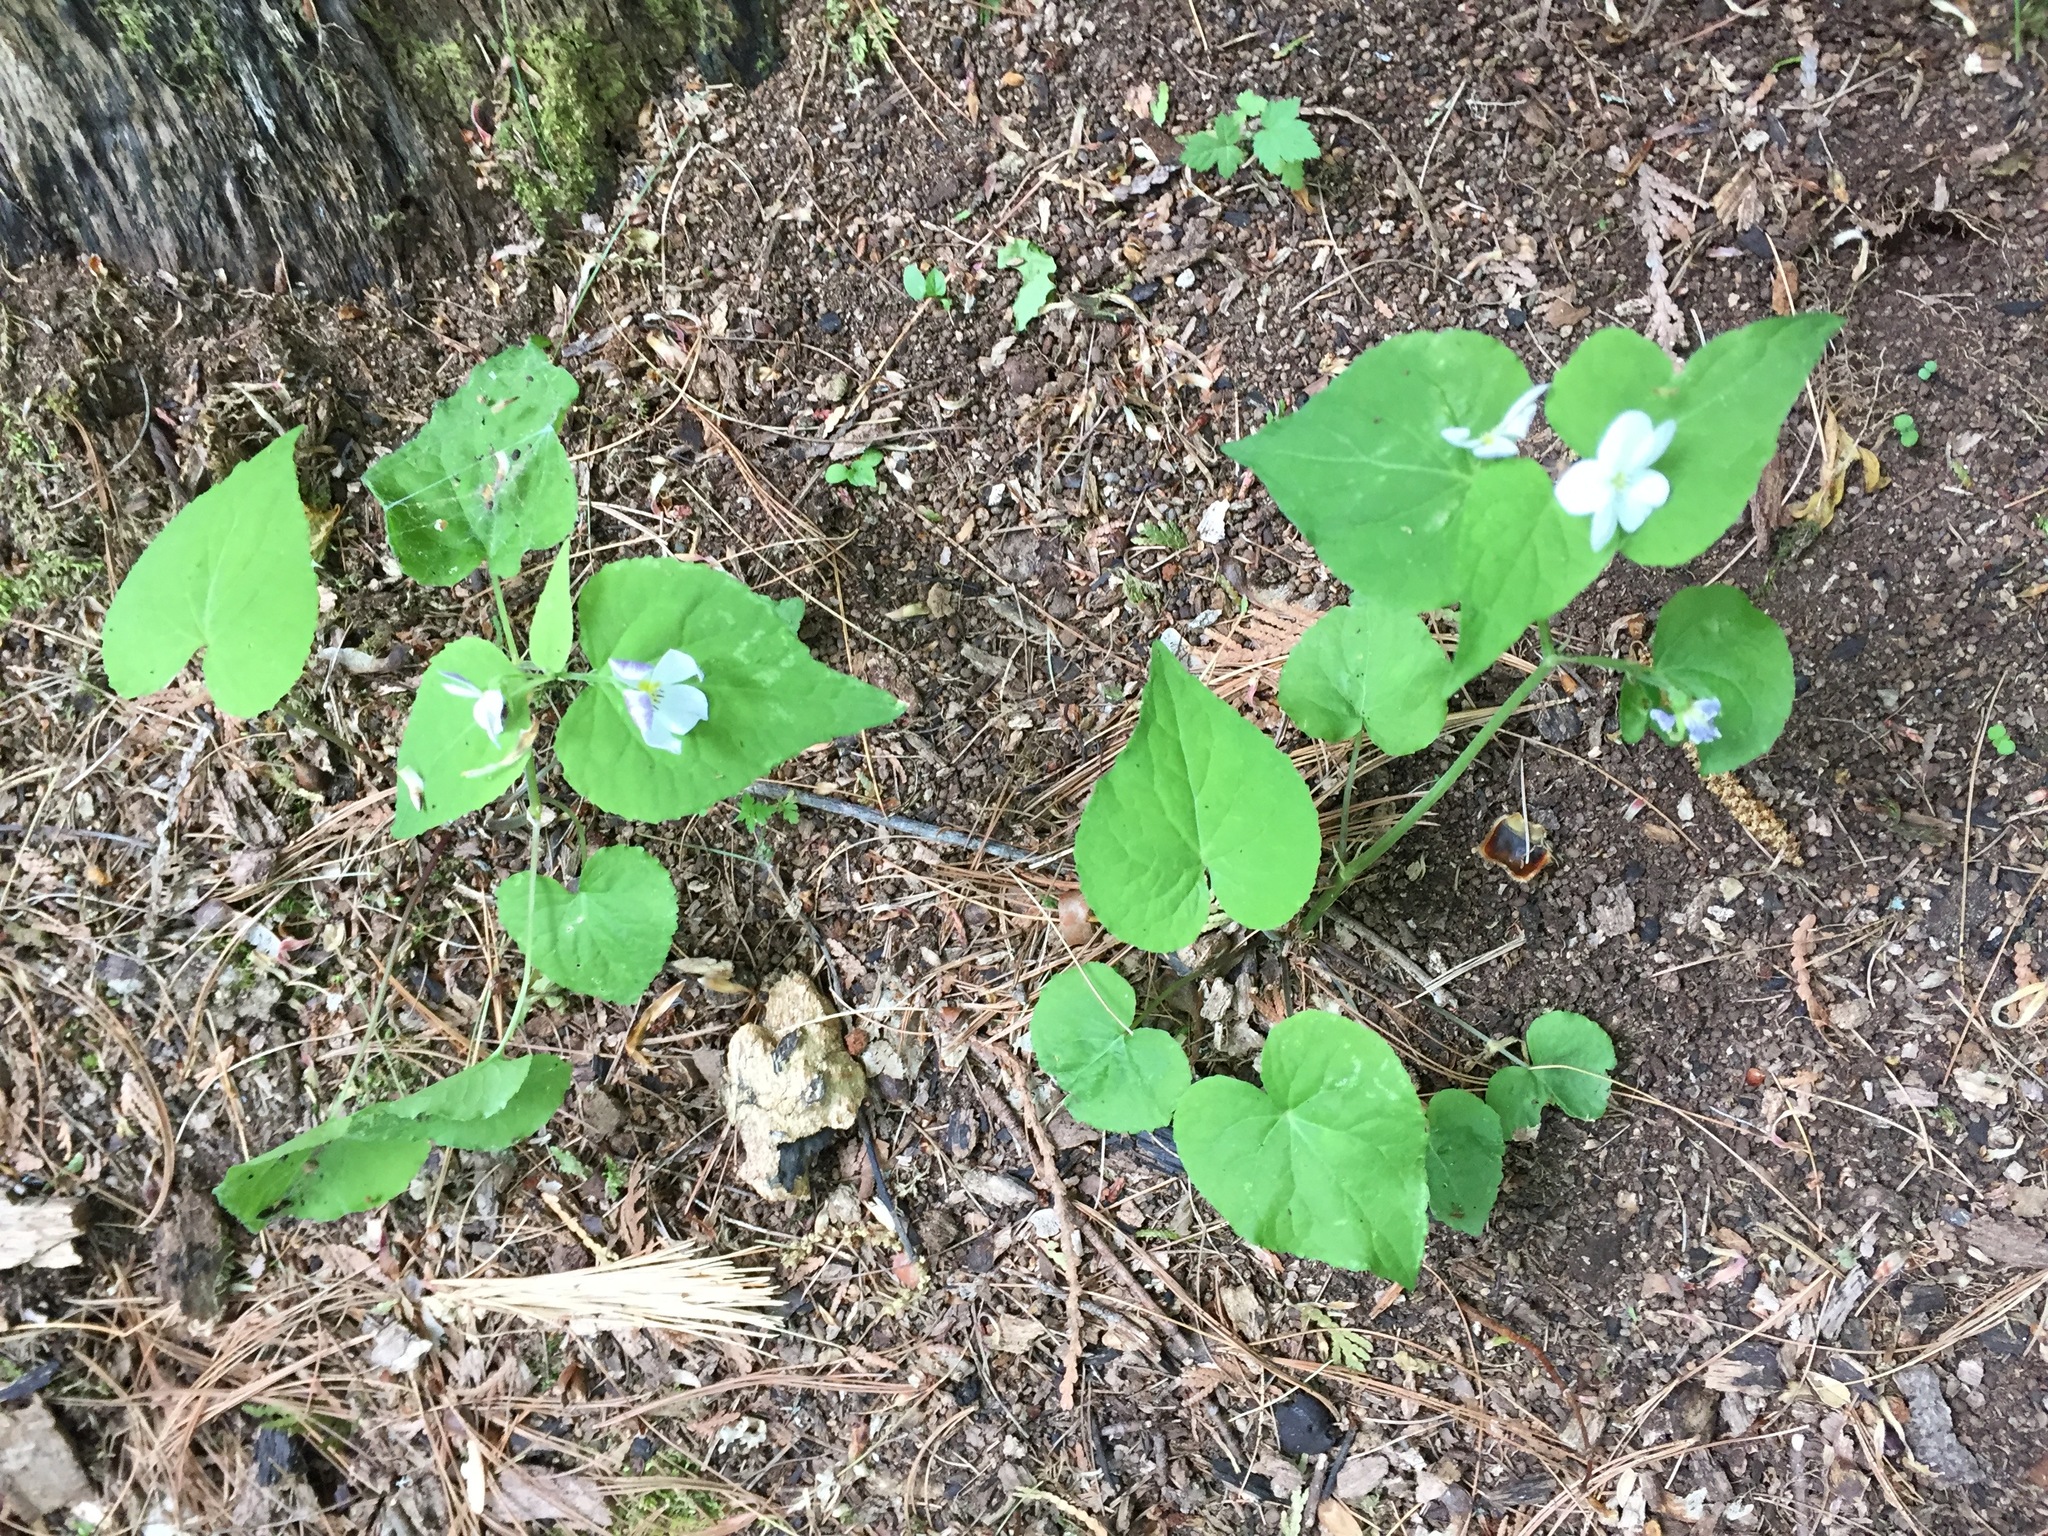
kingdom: Plantae
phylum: Tracheophyta
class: Magnoliopsida
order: Malpighiales
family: Violaceae
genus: Viola
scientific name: Viola canadensis
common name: Canada violet
